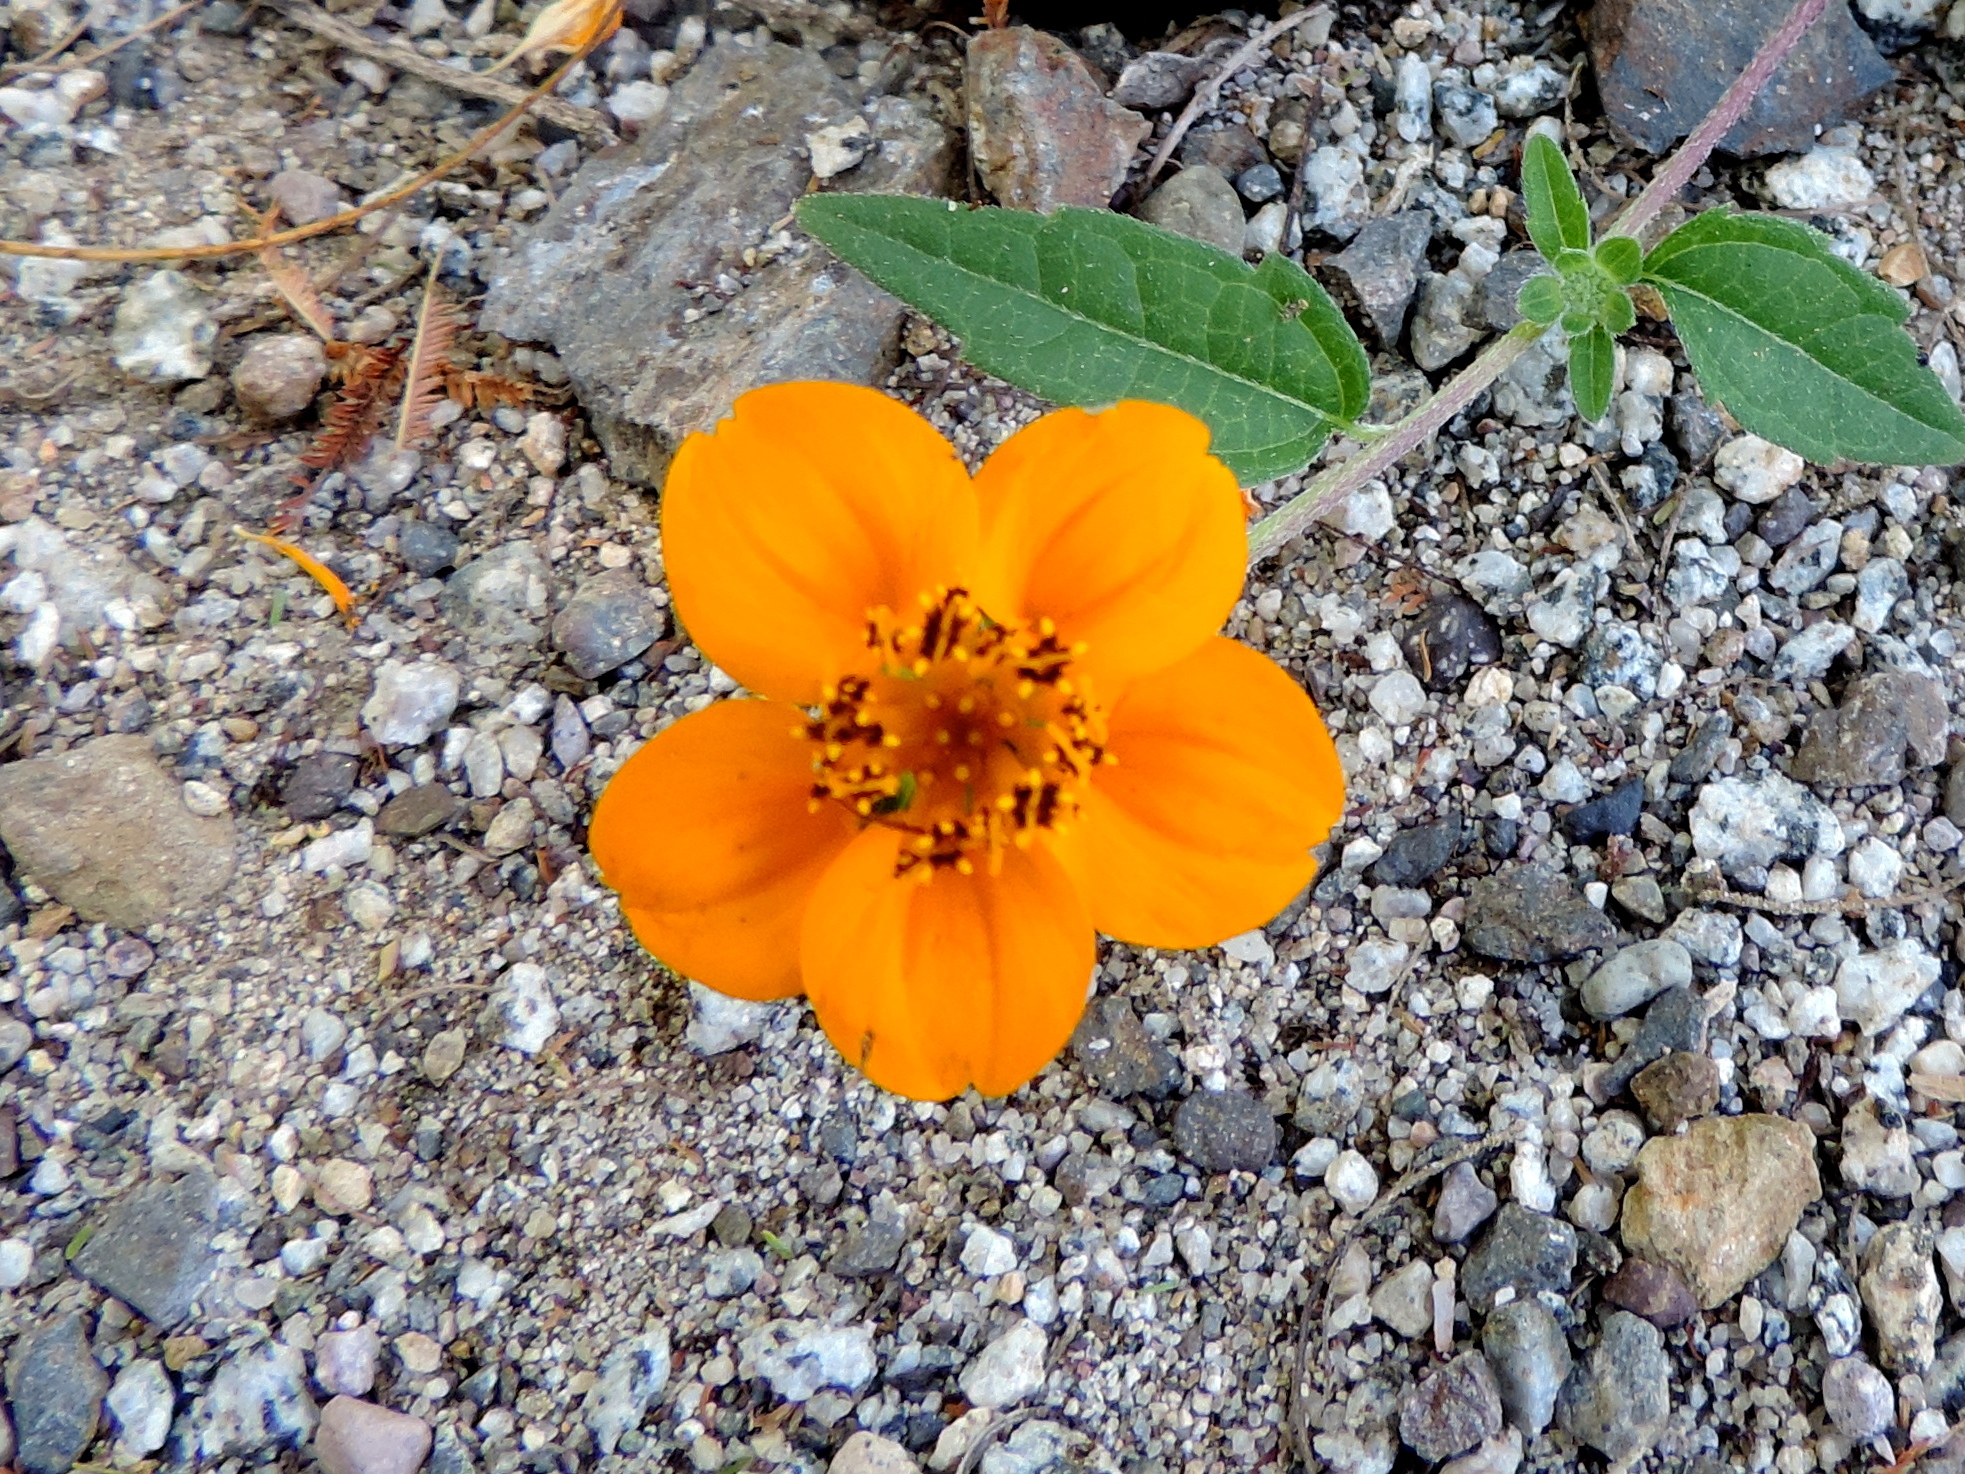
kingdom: Plantae
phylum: Tracheophyta
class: Magnoliopsida
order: Asterales
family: Asteraceae
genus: Sclerocarpus
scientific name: Sclerocarpus divaricatus
